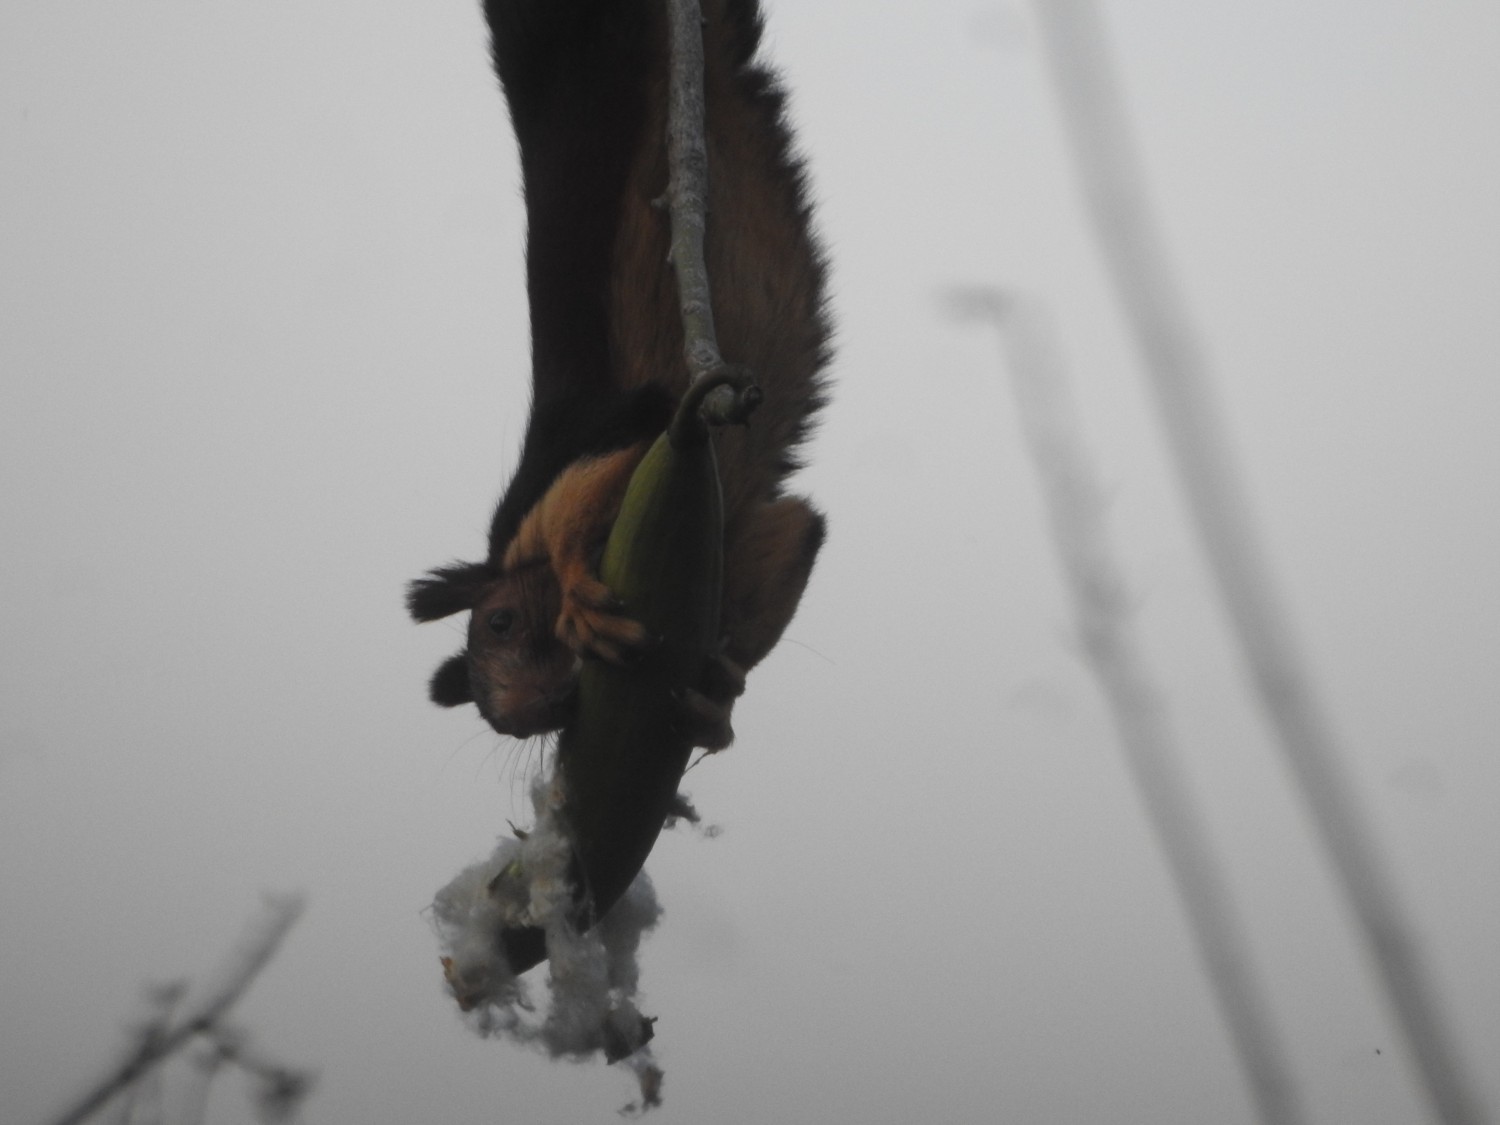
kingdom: Animalia
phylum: Chordata
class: Mammalia
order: Rodentia
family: Sciuridae
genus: Ratufa
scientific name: Ratufa indica
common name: Indian giant squirrel
